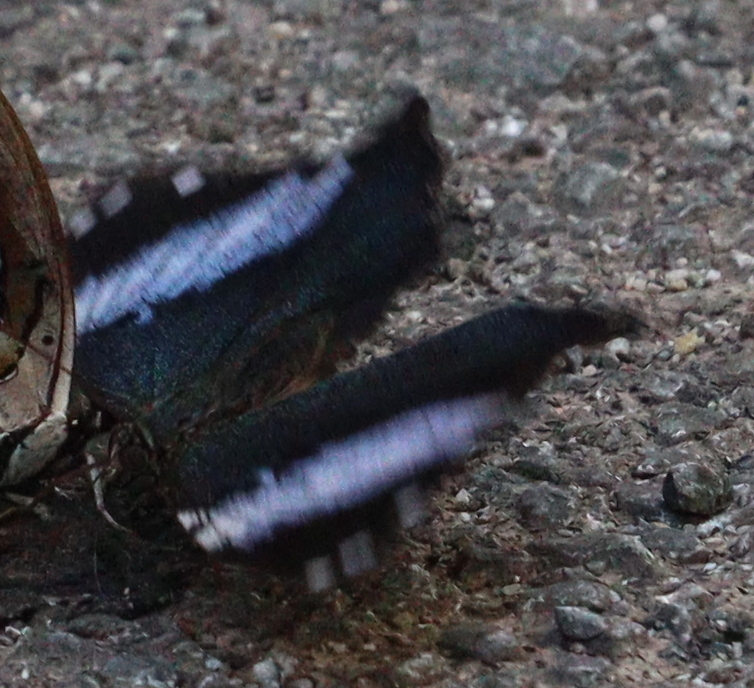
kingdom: Animalia
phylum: Arthropoda
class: Insecta
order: Lepidoptera
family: Nymphalidae
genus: Prothoe
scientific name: Prothoe franck
